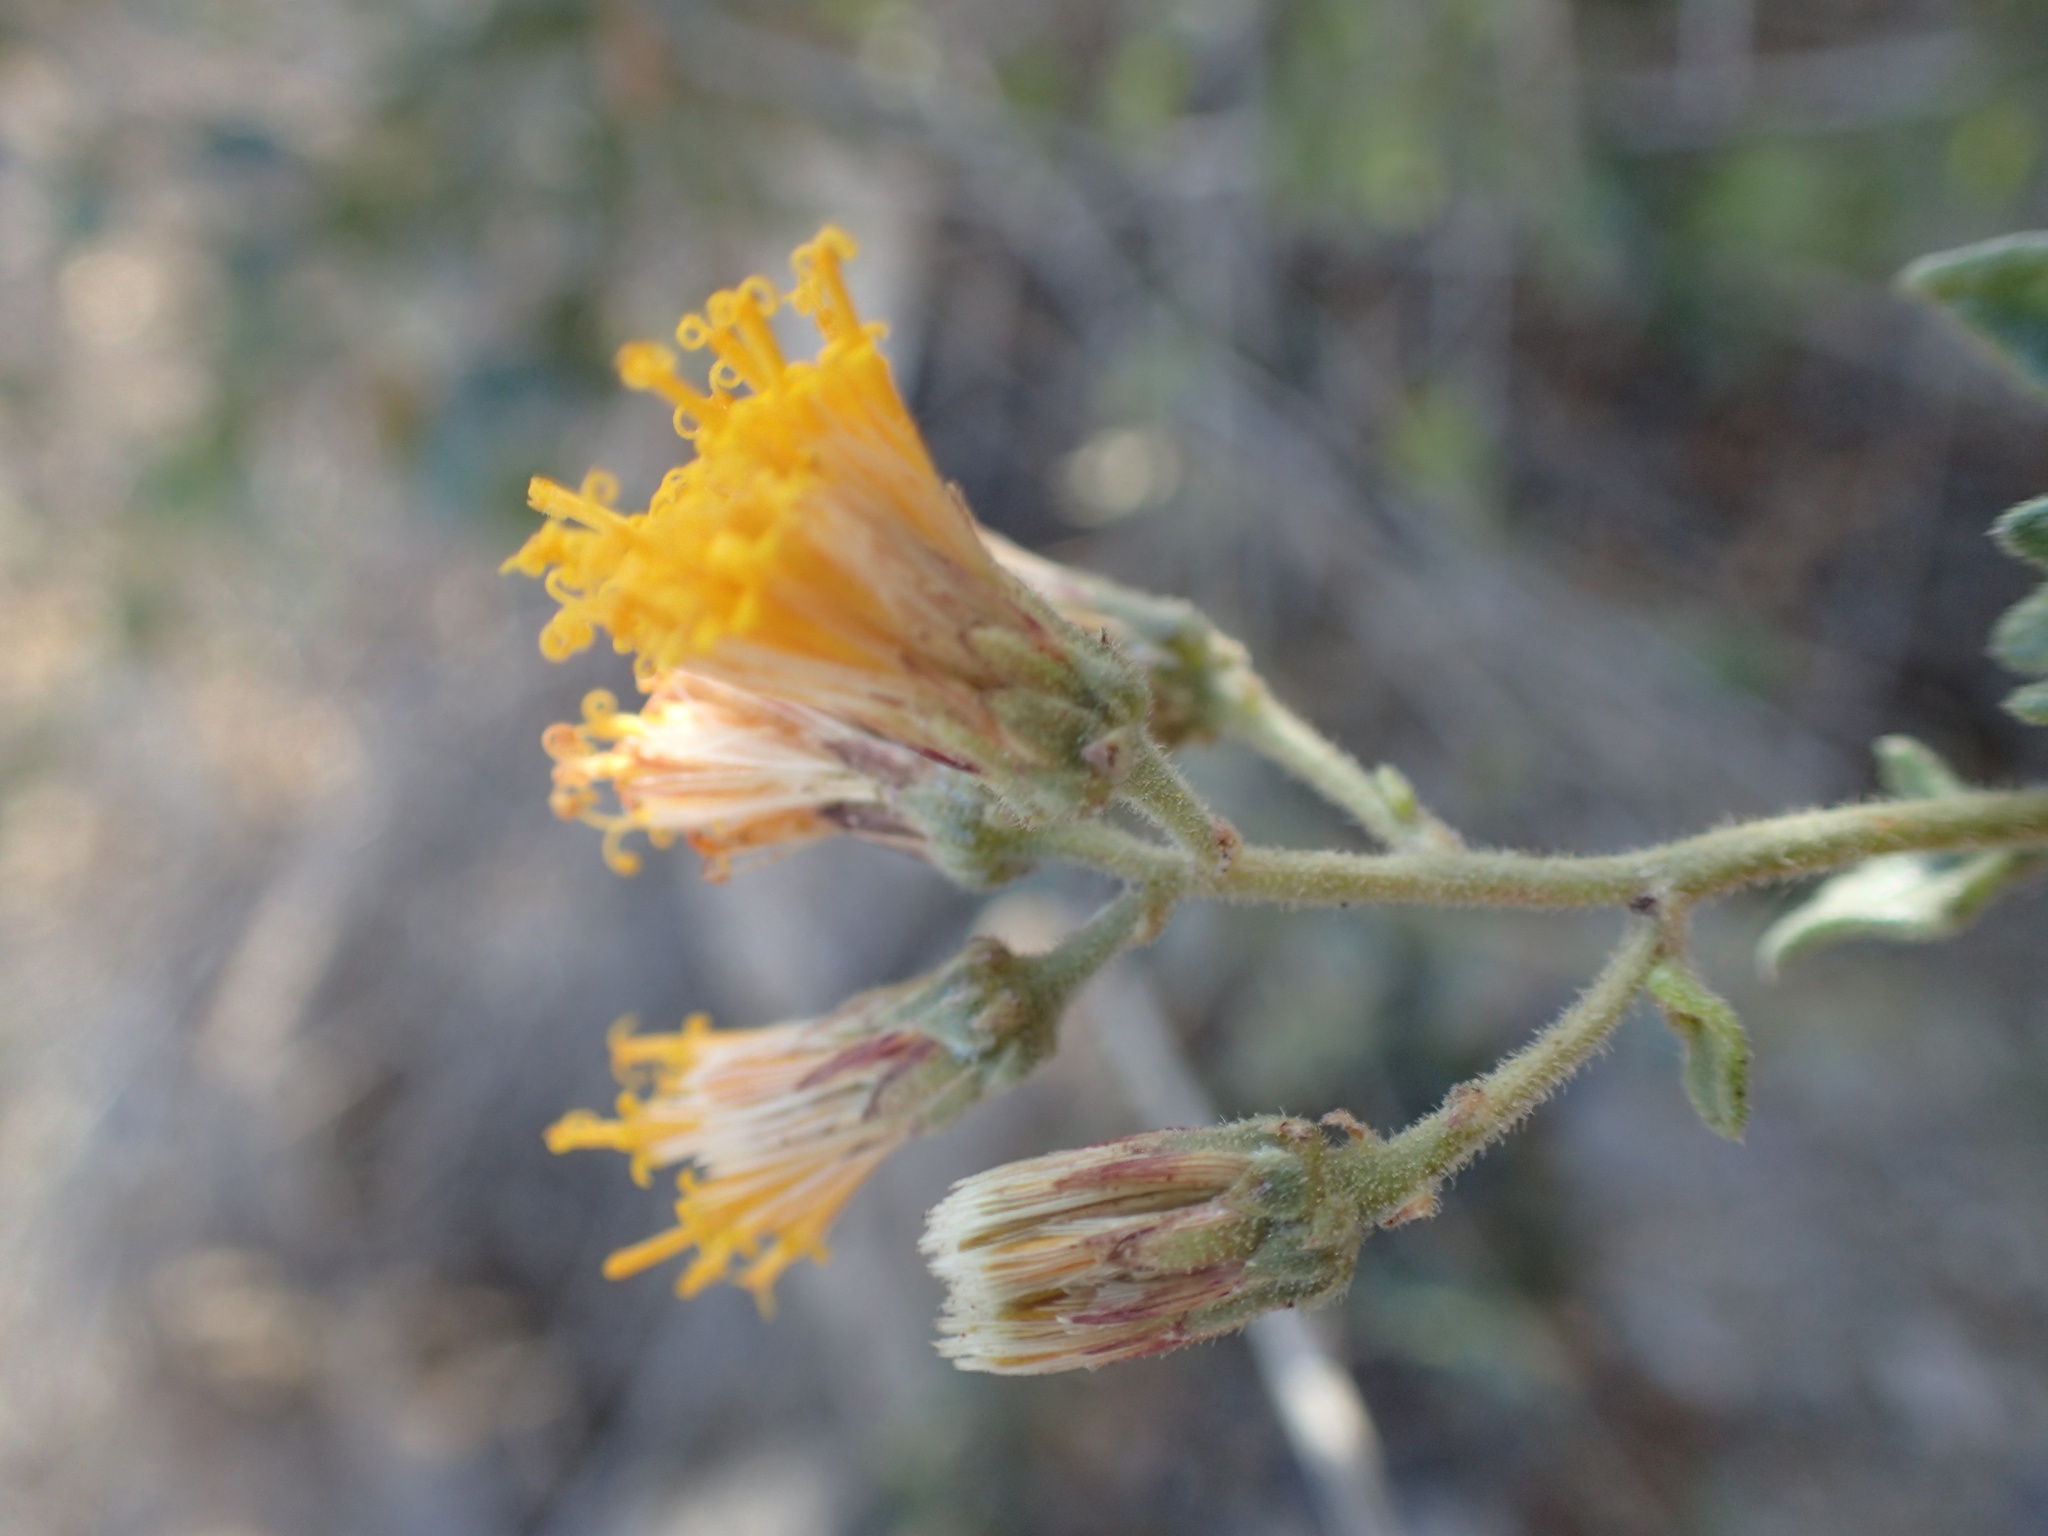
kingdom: Plantae
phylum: Tracheophyta
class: Magnoliopsida
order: Asterales
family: Asteraceae
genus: Bebbia
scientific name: Bebbia atriplicifolia
